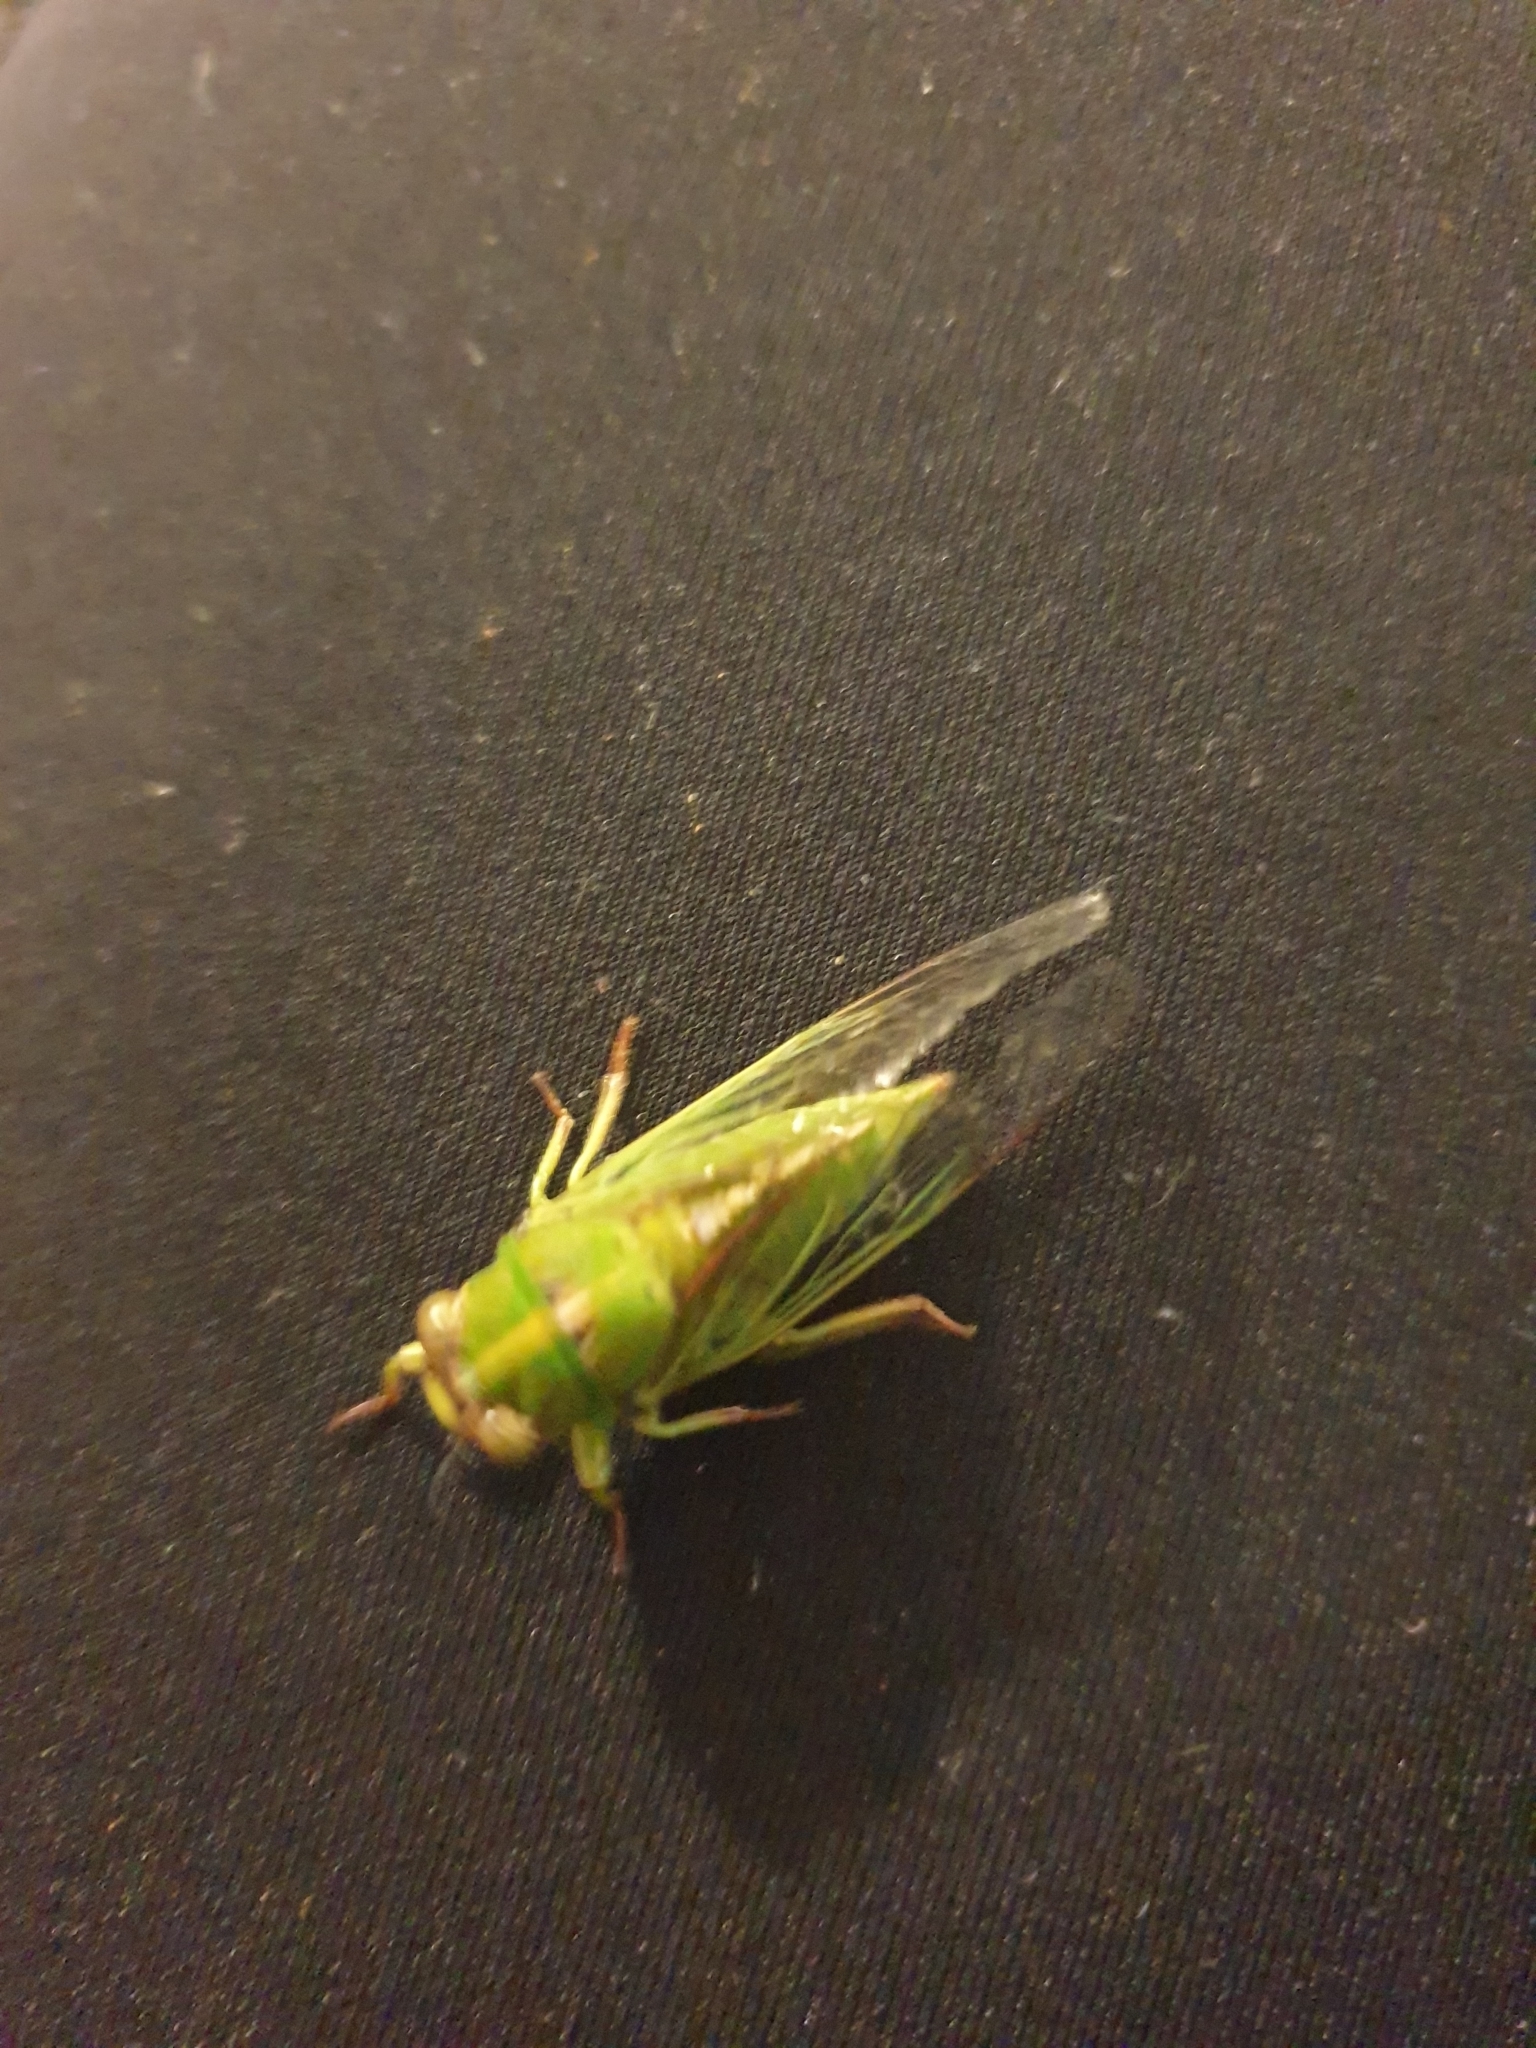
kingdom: Animalia
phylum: Arthropoda
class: Insecta
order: Hemiptera
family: Cicadidae
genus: Kikihia
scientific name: Kikihia cutora
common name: Northern snoring cicada
